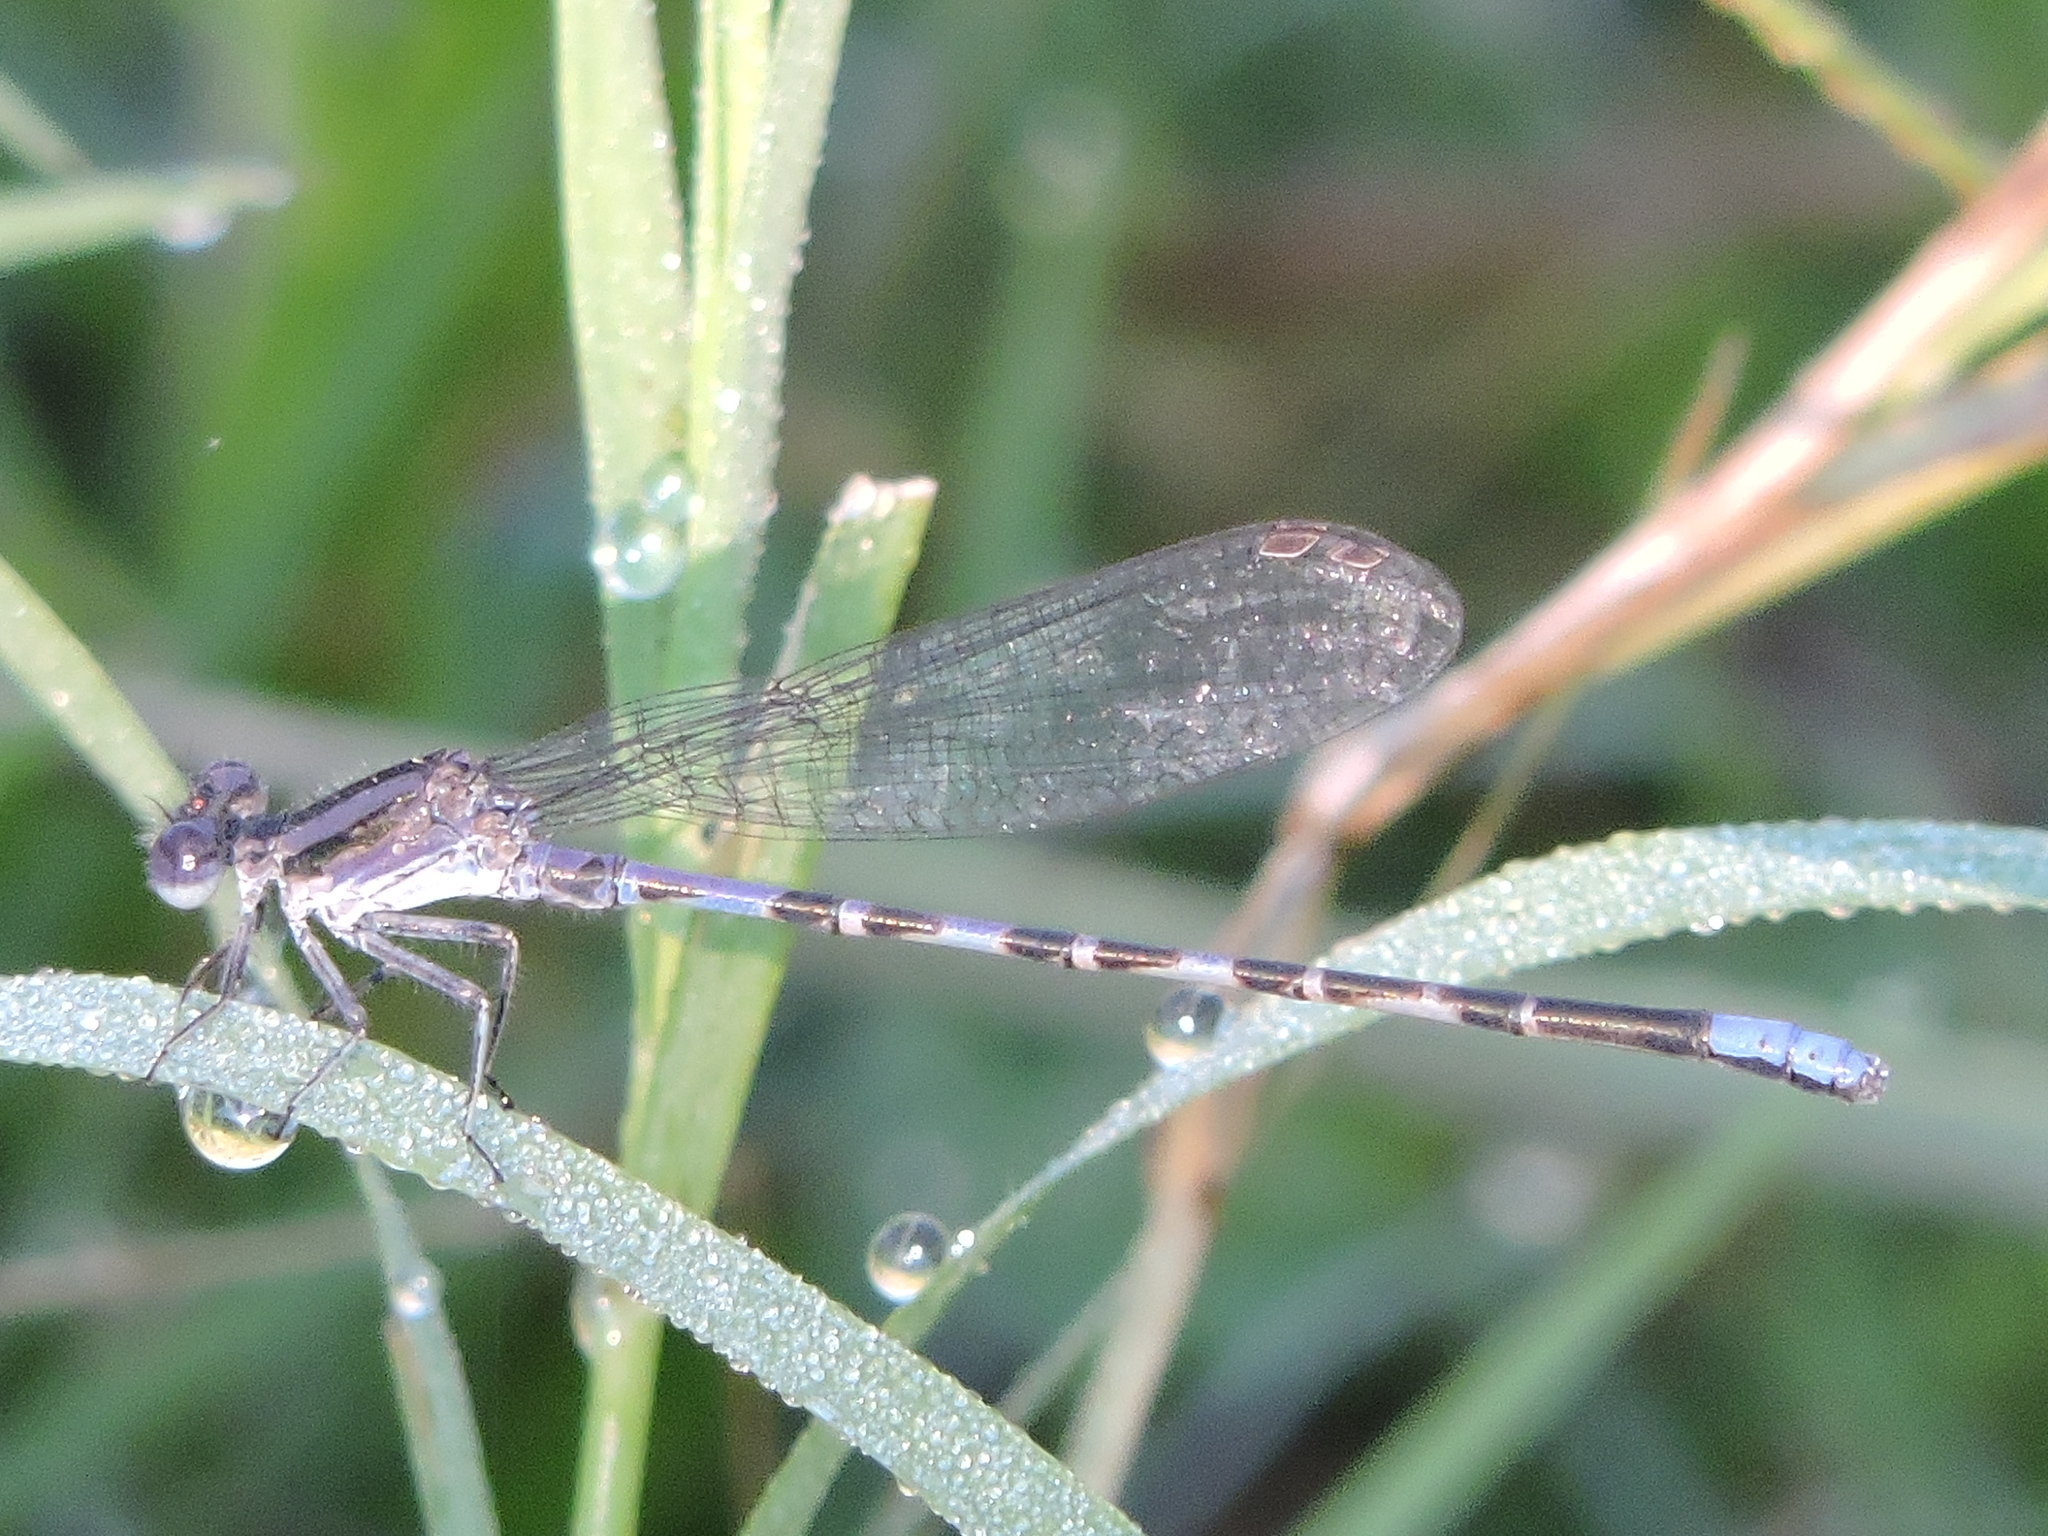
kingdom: Animalia
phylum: Arthropoda
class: Insecta
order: Odonata
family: Coenagrionidae
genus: Argia
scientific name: Argia immunda
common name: Kiowa dancer
